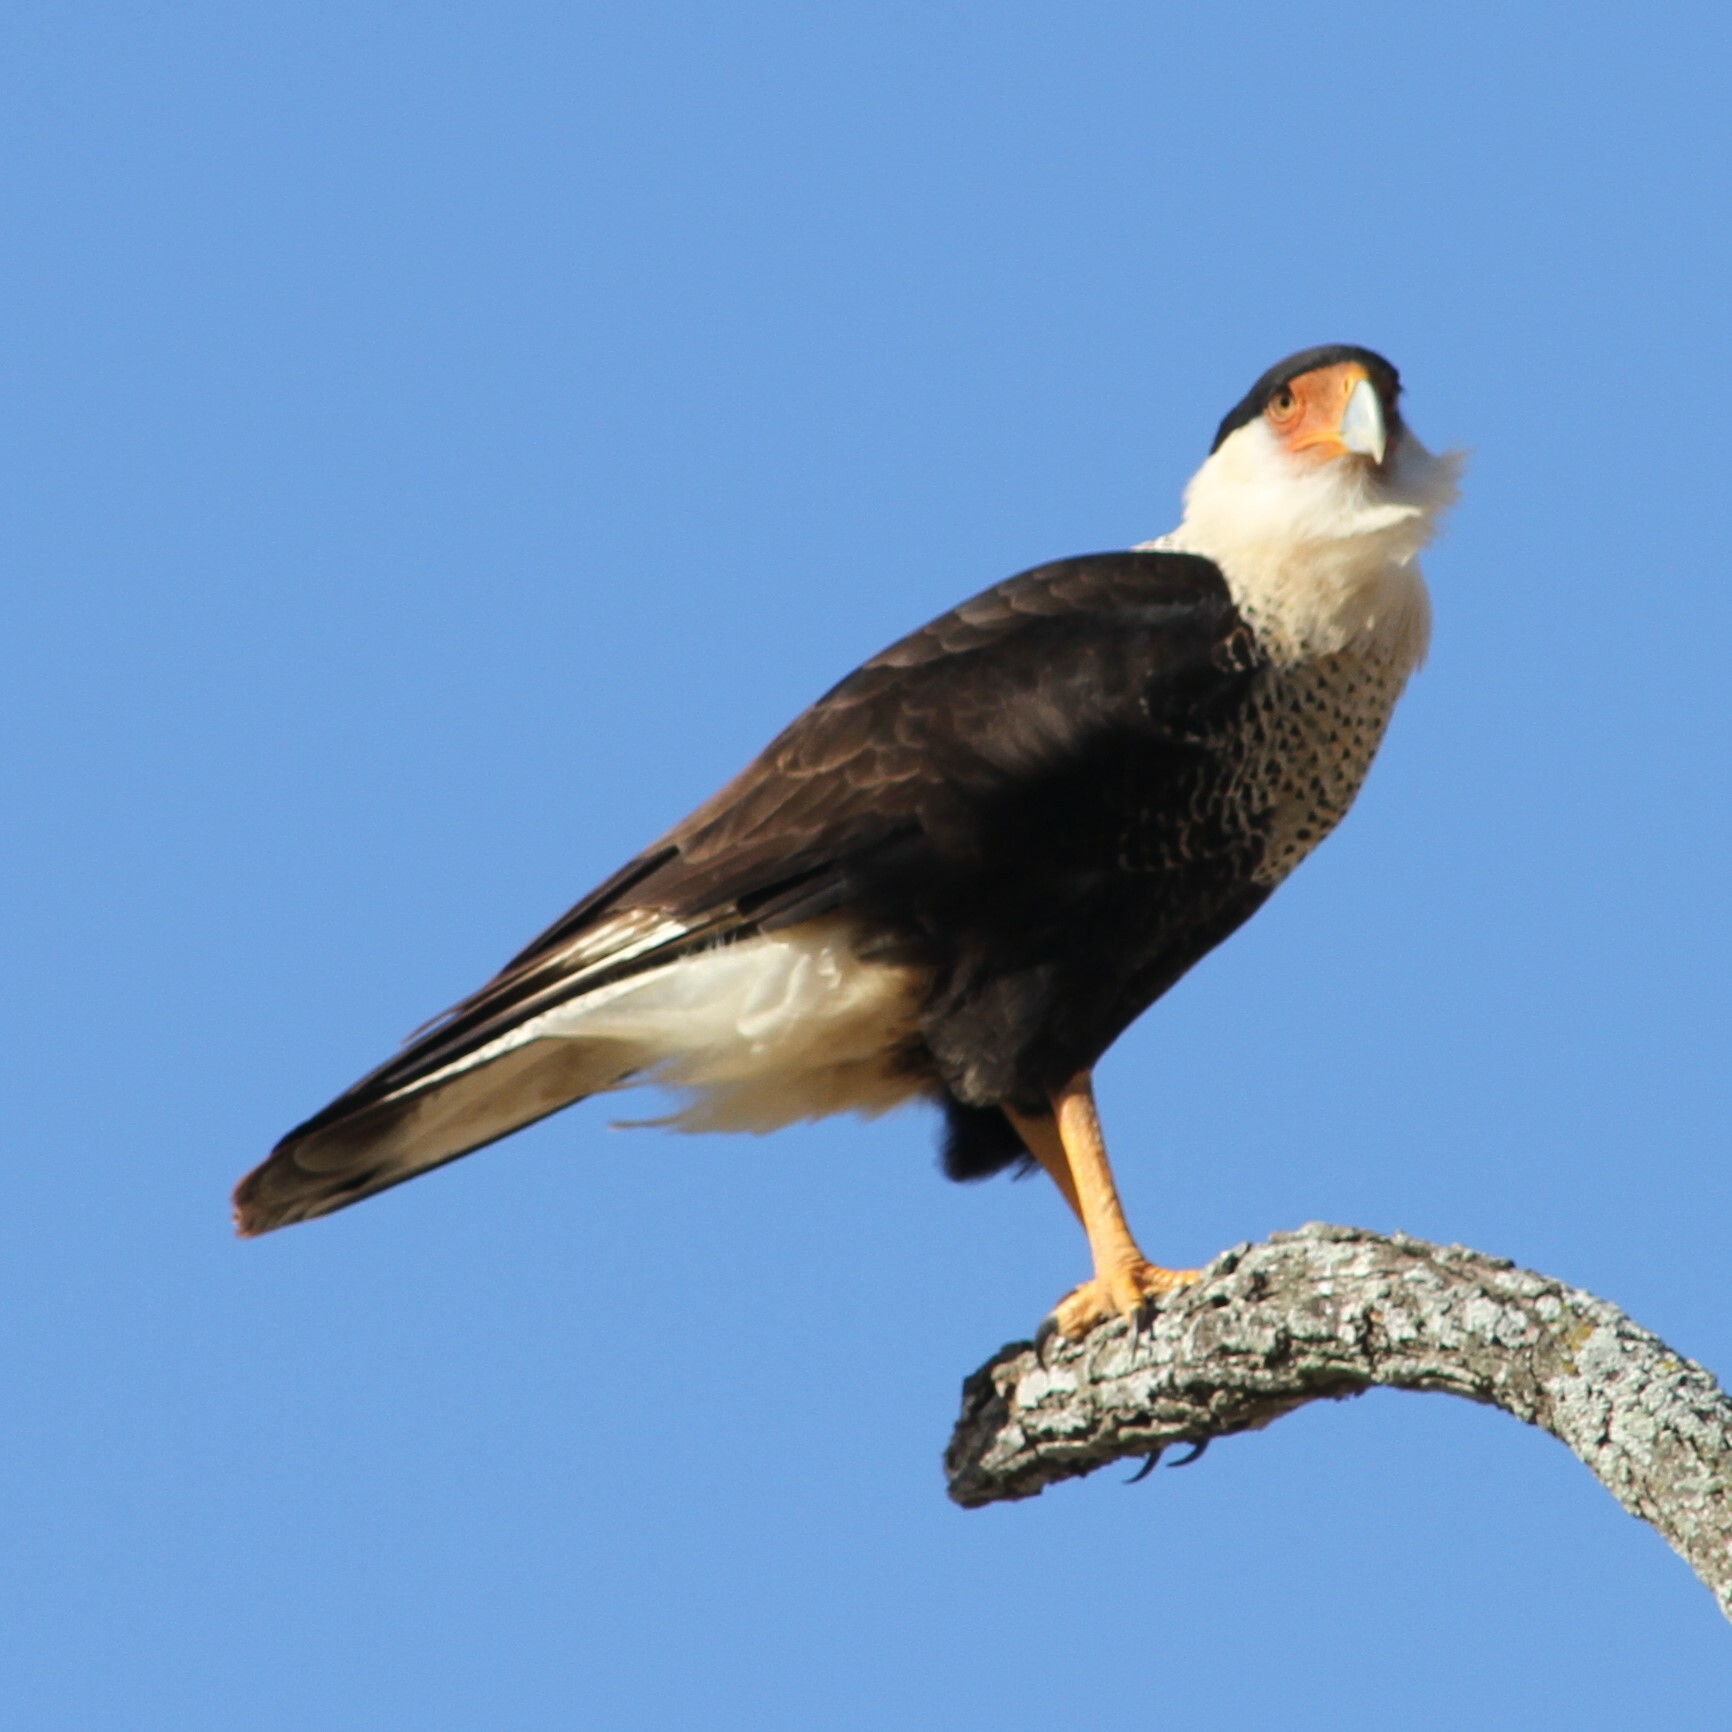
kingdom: Animalia
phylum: Chordata
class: Aves
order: Falconiformes
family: Falconidae
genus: Caracara
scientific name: Caracara plancus
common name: Southern caracara
